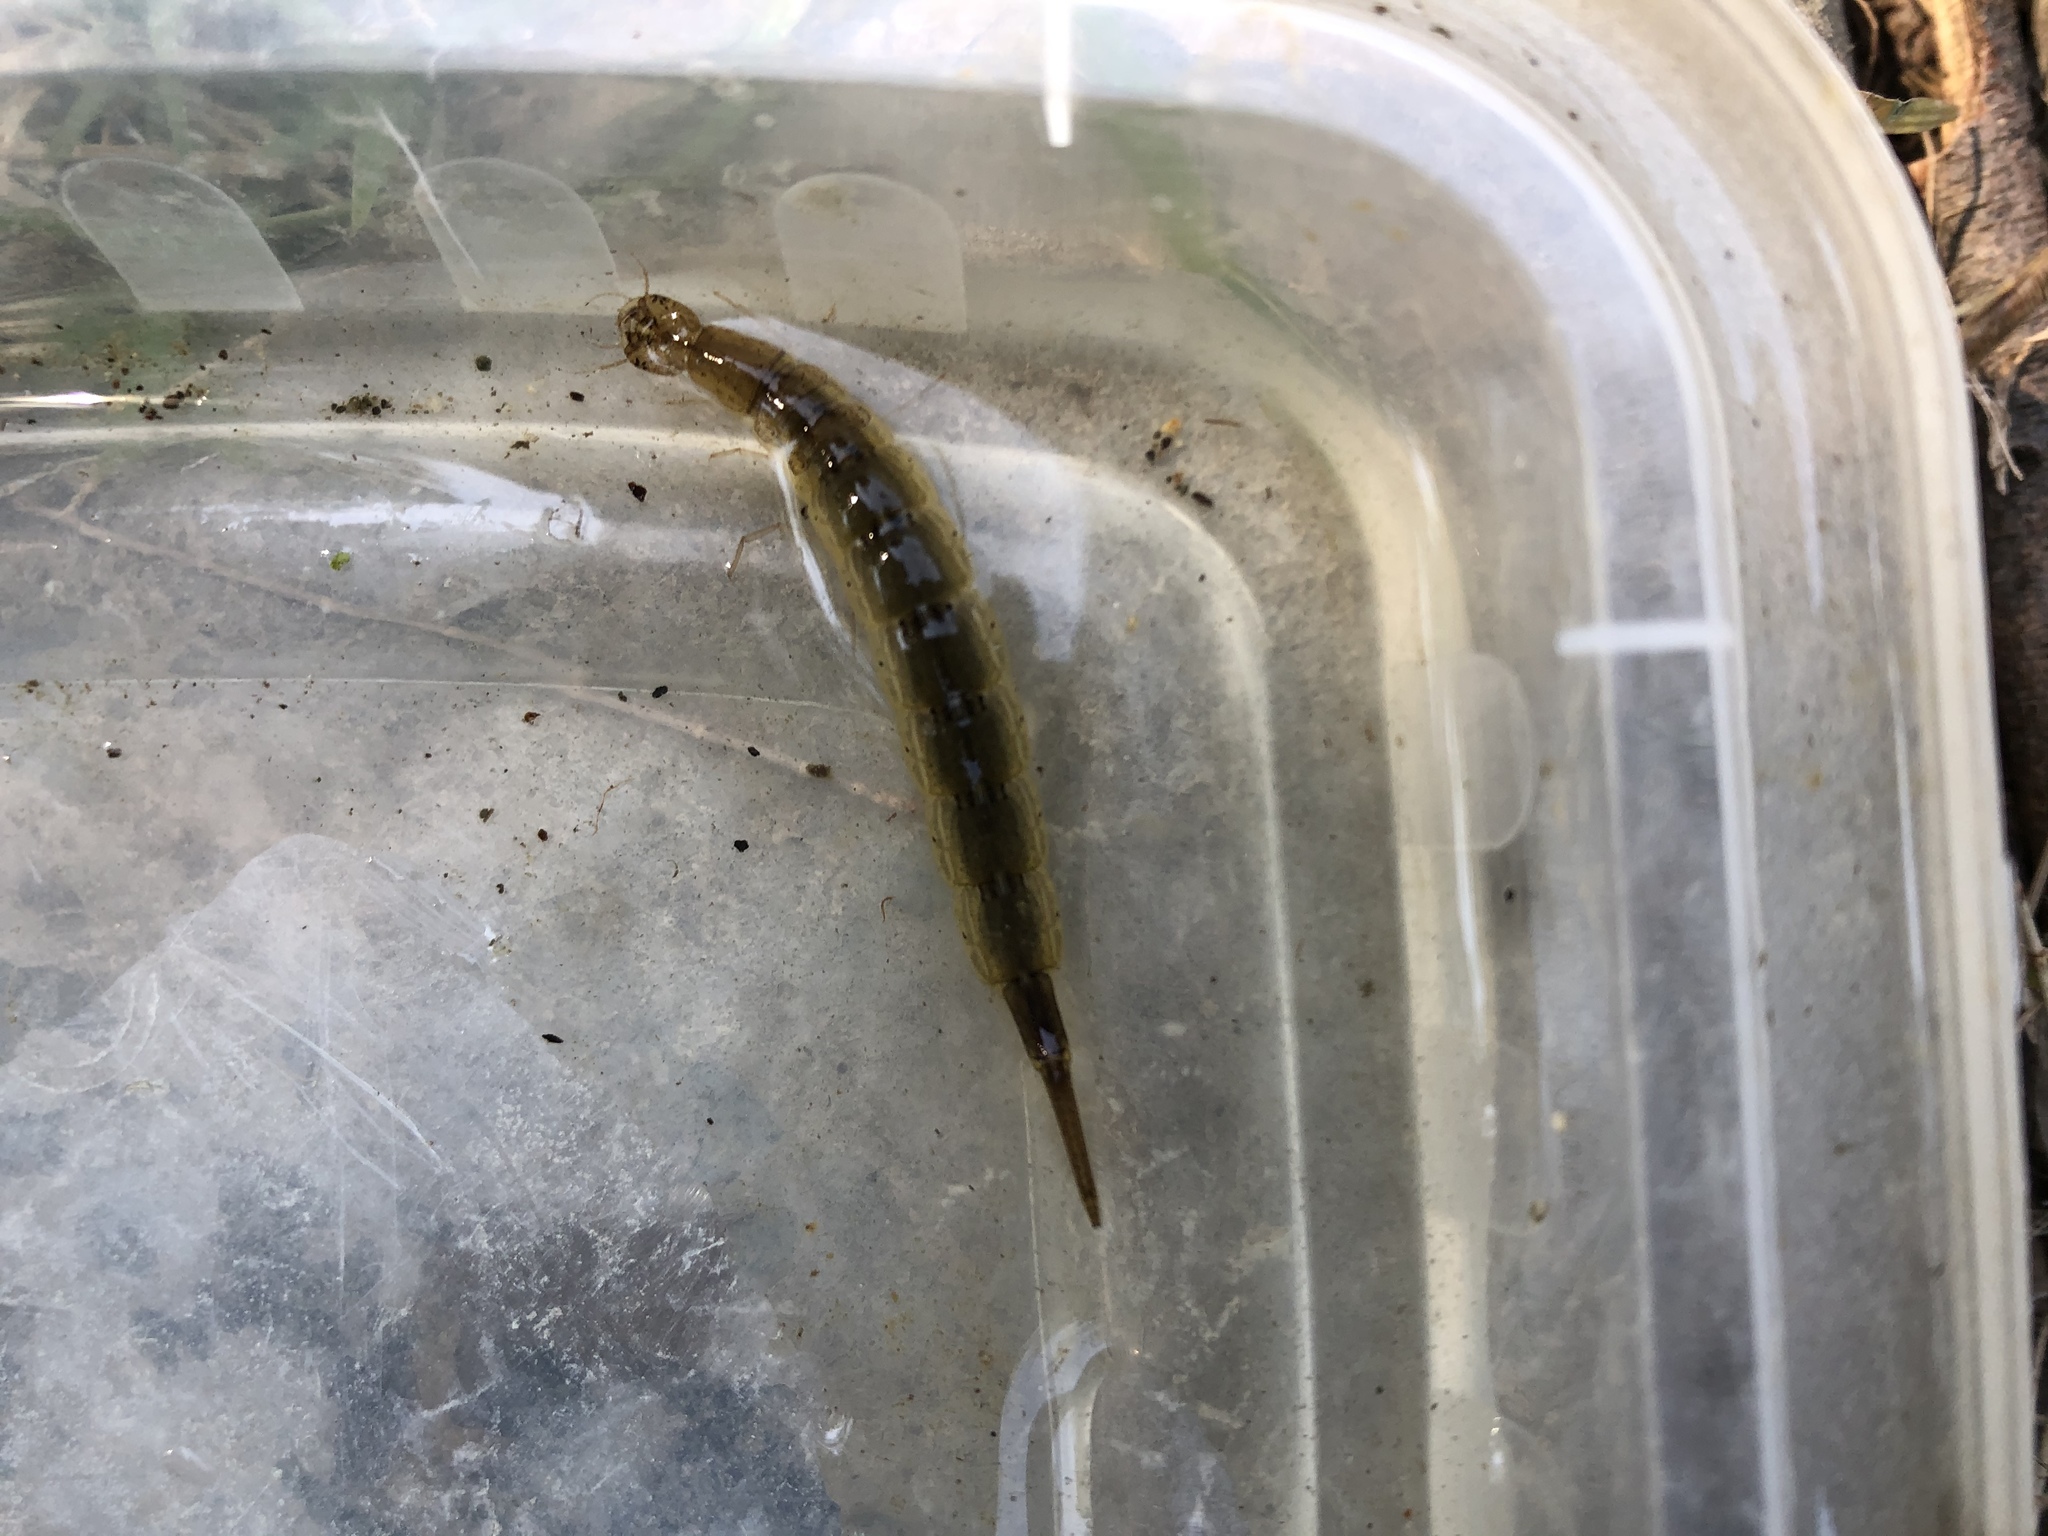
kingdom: Animalia
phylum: Arthropoda
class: Insecta
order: Coleoptera
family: Dytiscidae
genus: Cybister
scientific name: Cybister explanatus
